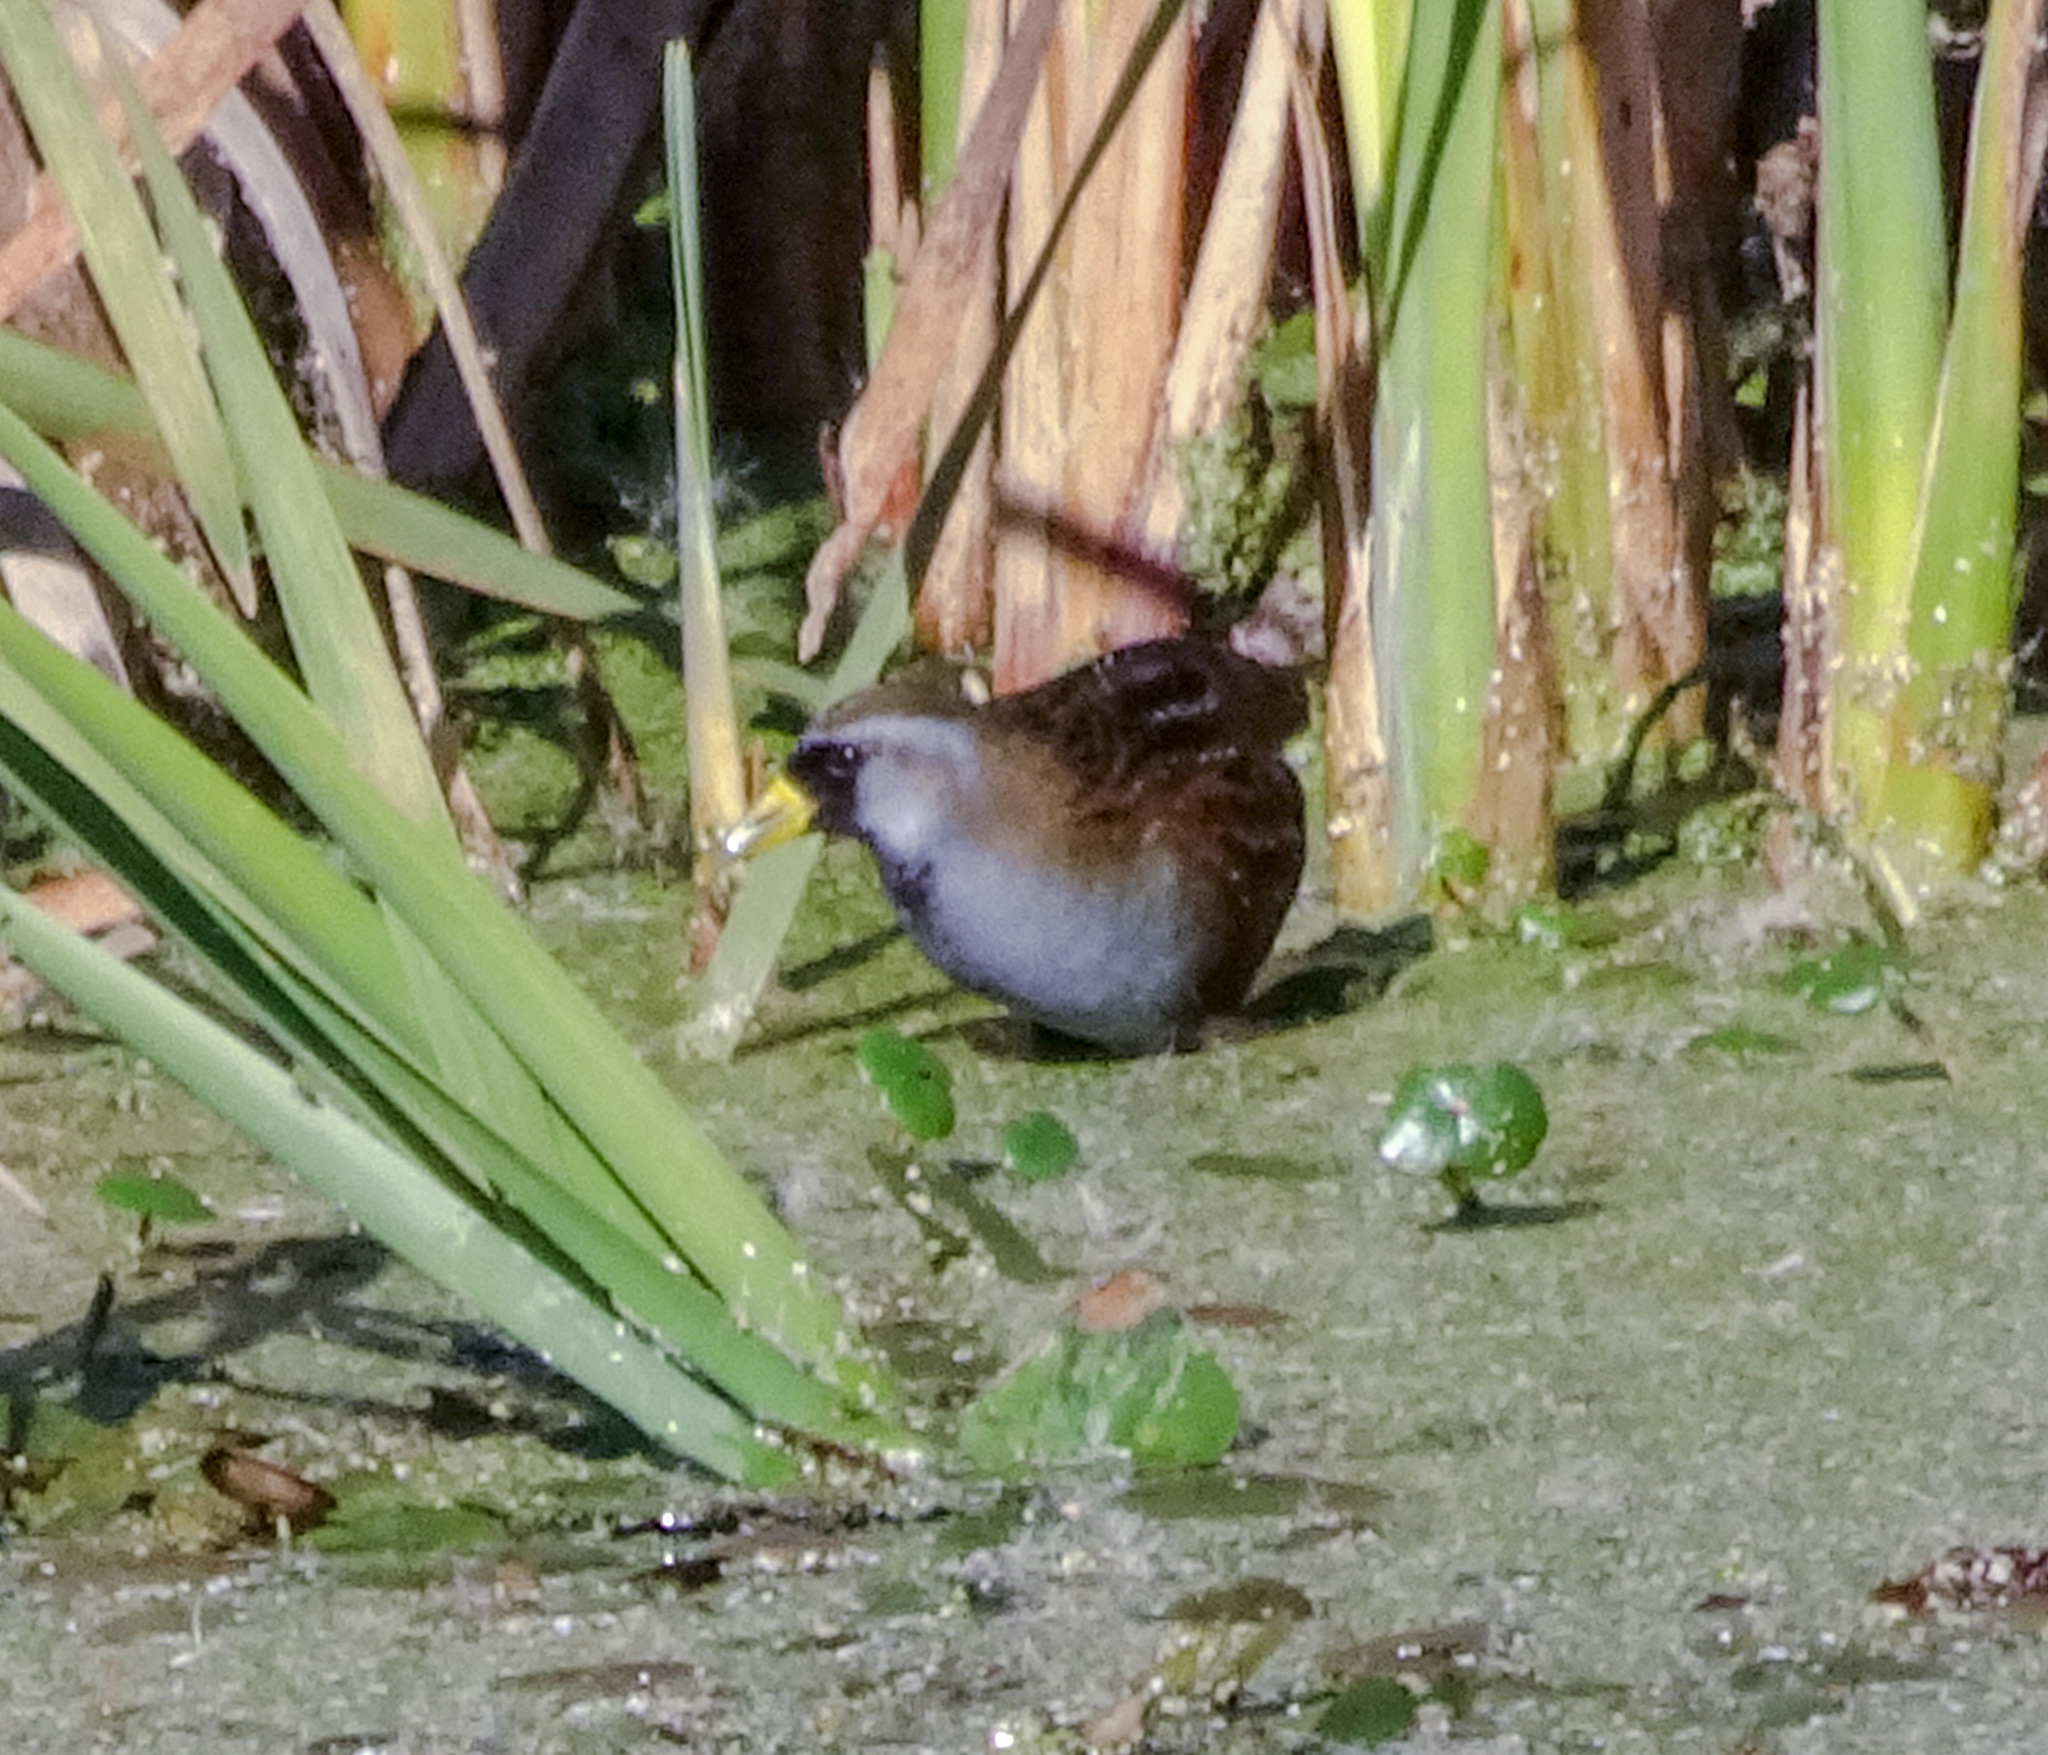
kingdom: Animalia
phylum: Chordata
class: Aves
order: Gruiformes
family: Rallidae
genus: Porzana
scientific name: Porzana carolina
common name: Sora
